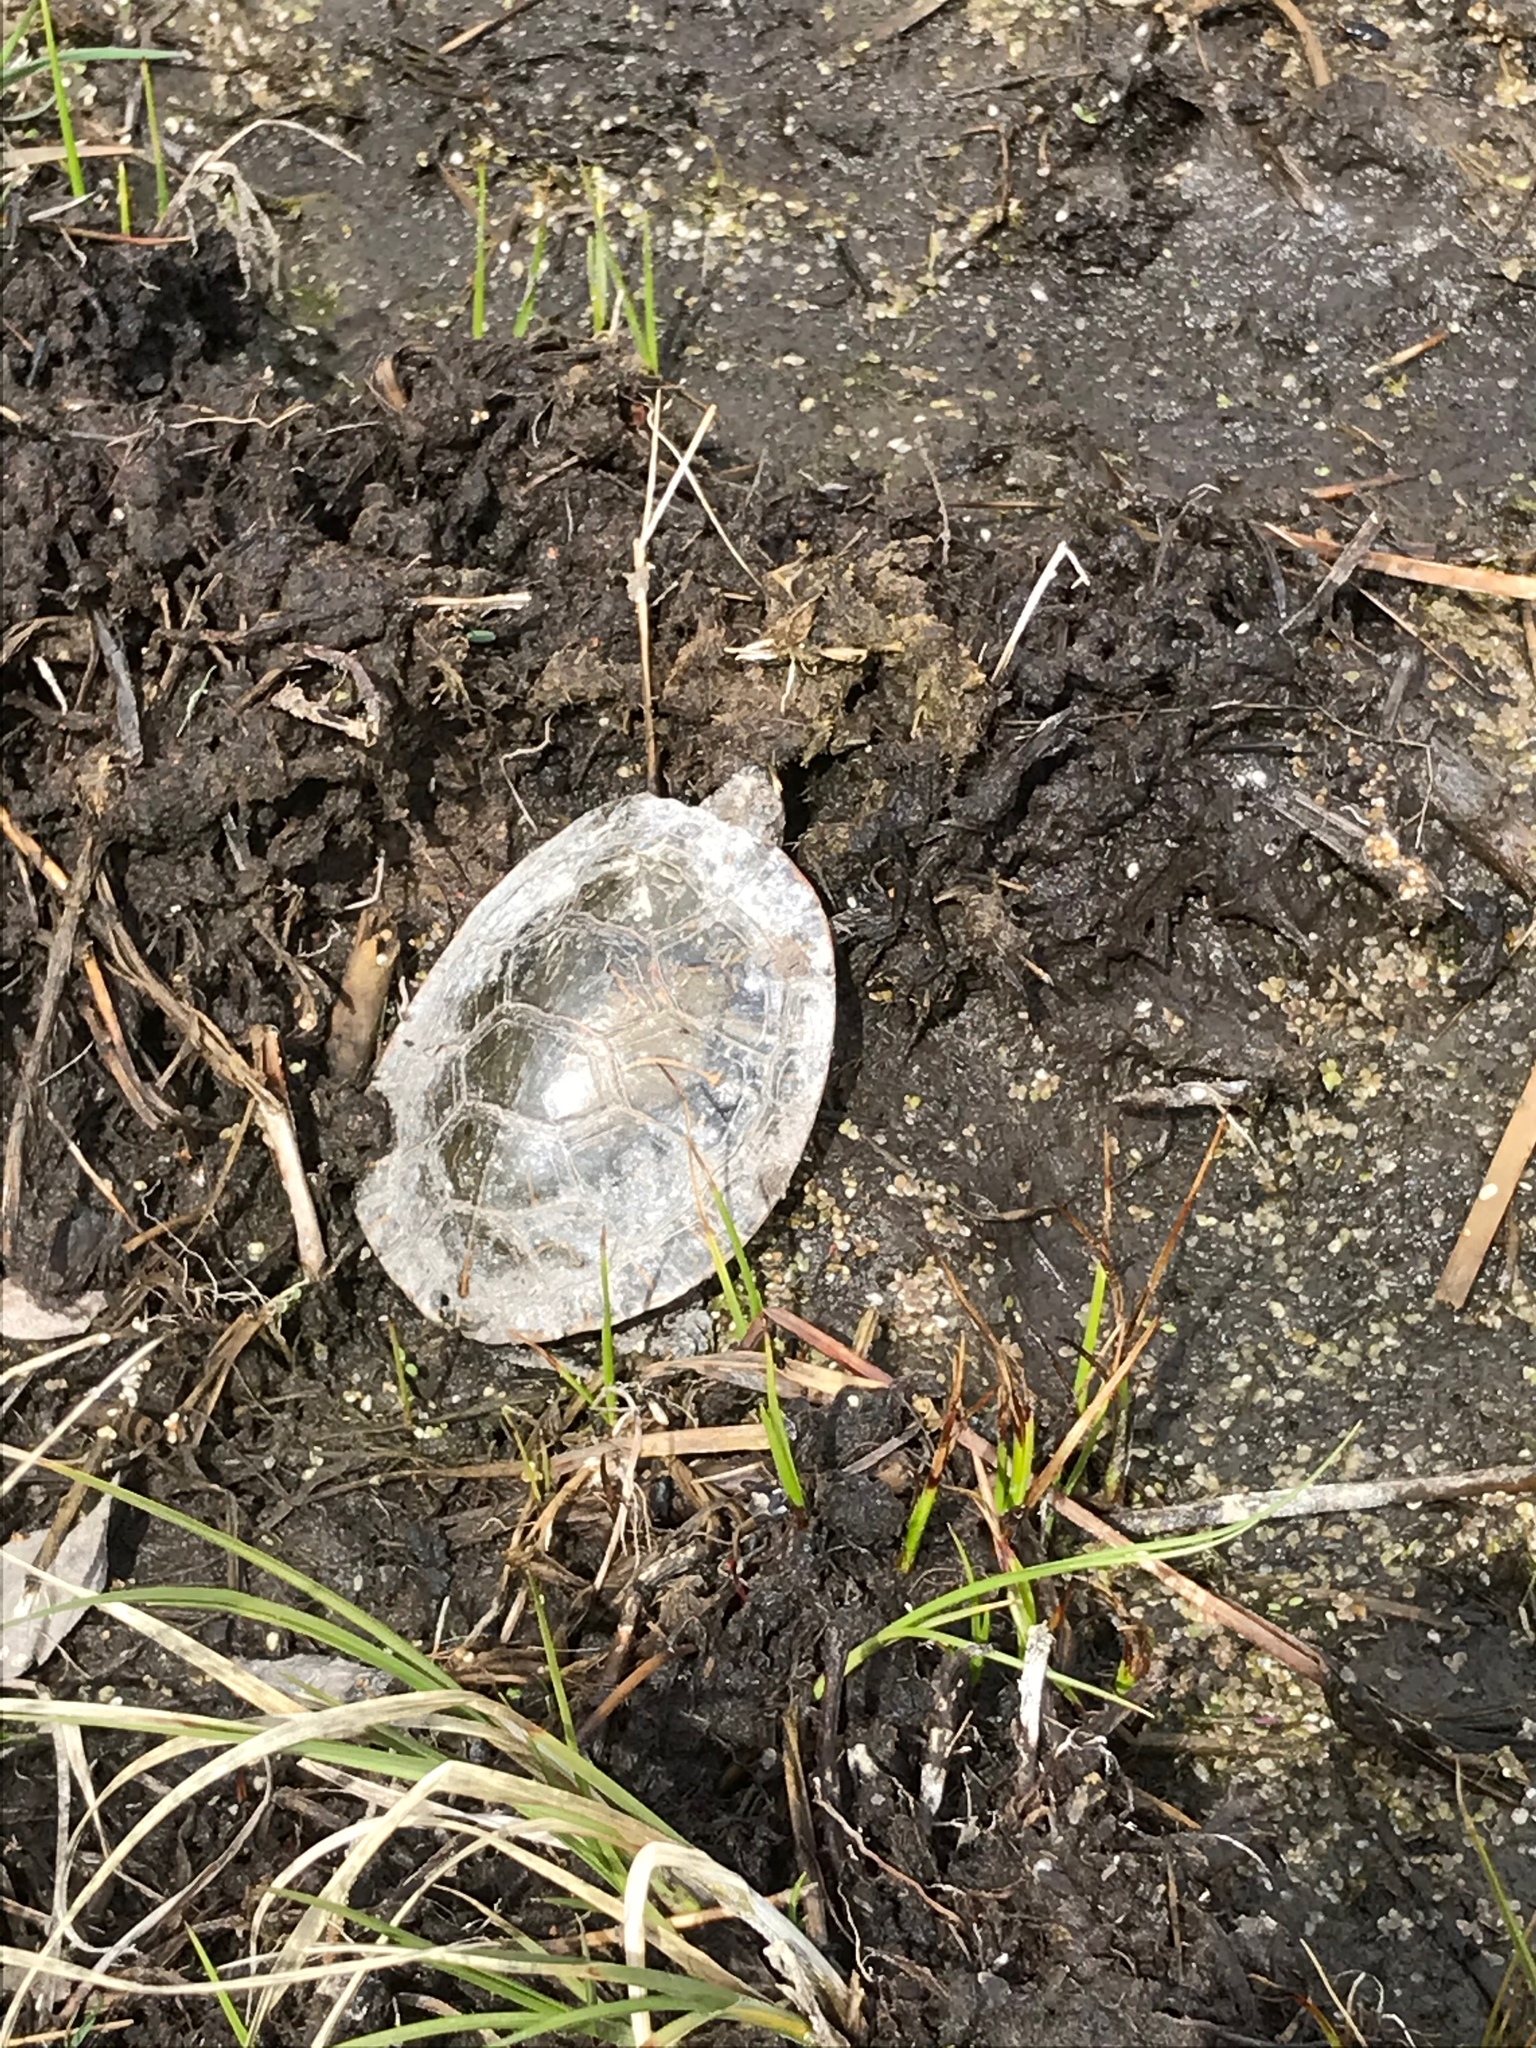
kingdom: Animalia
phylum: Chordata
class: Testudines
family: Emydidae
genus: Chrysemys
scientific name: Chrysemys picta
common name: Painted turtle
